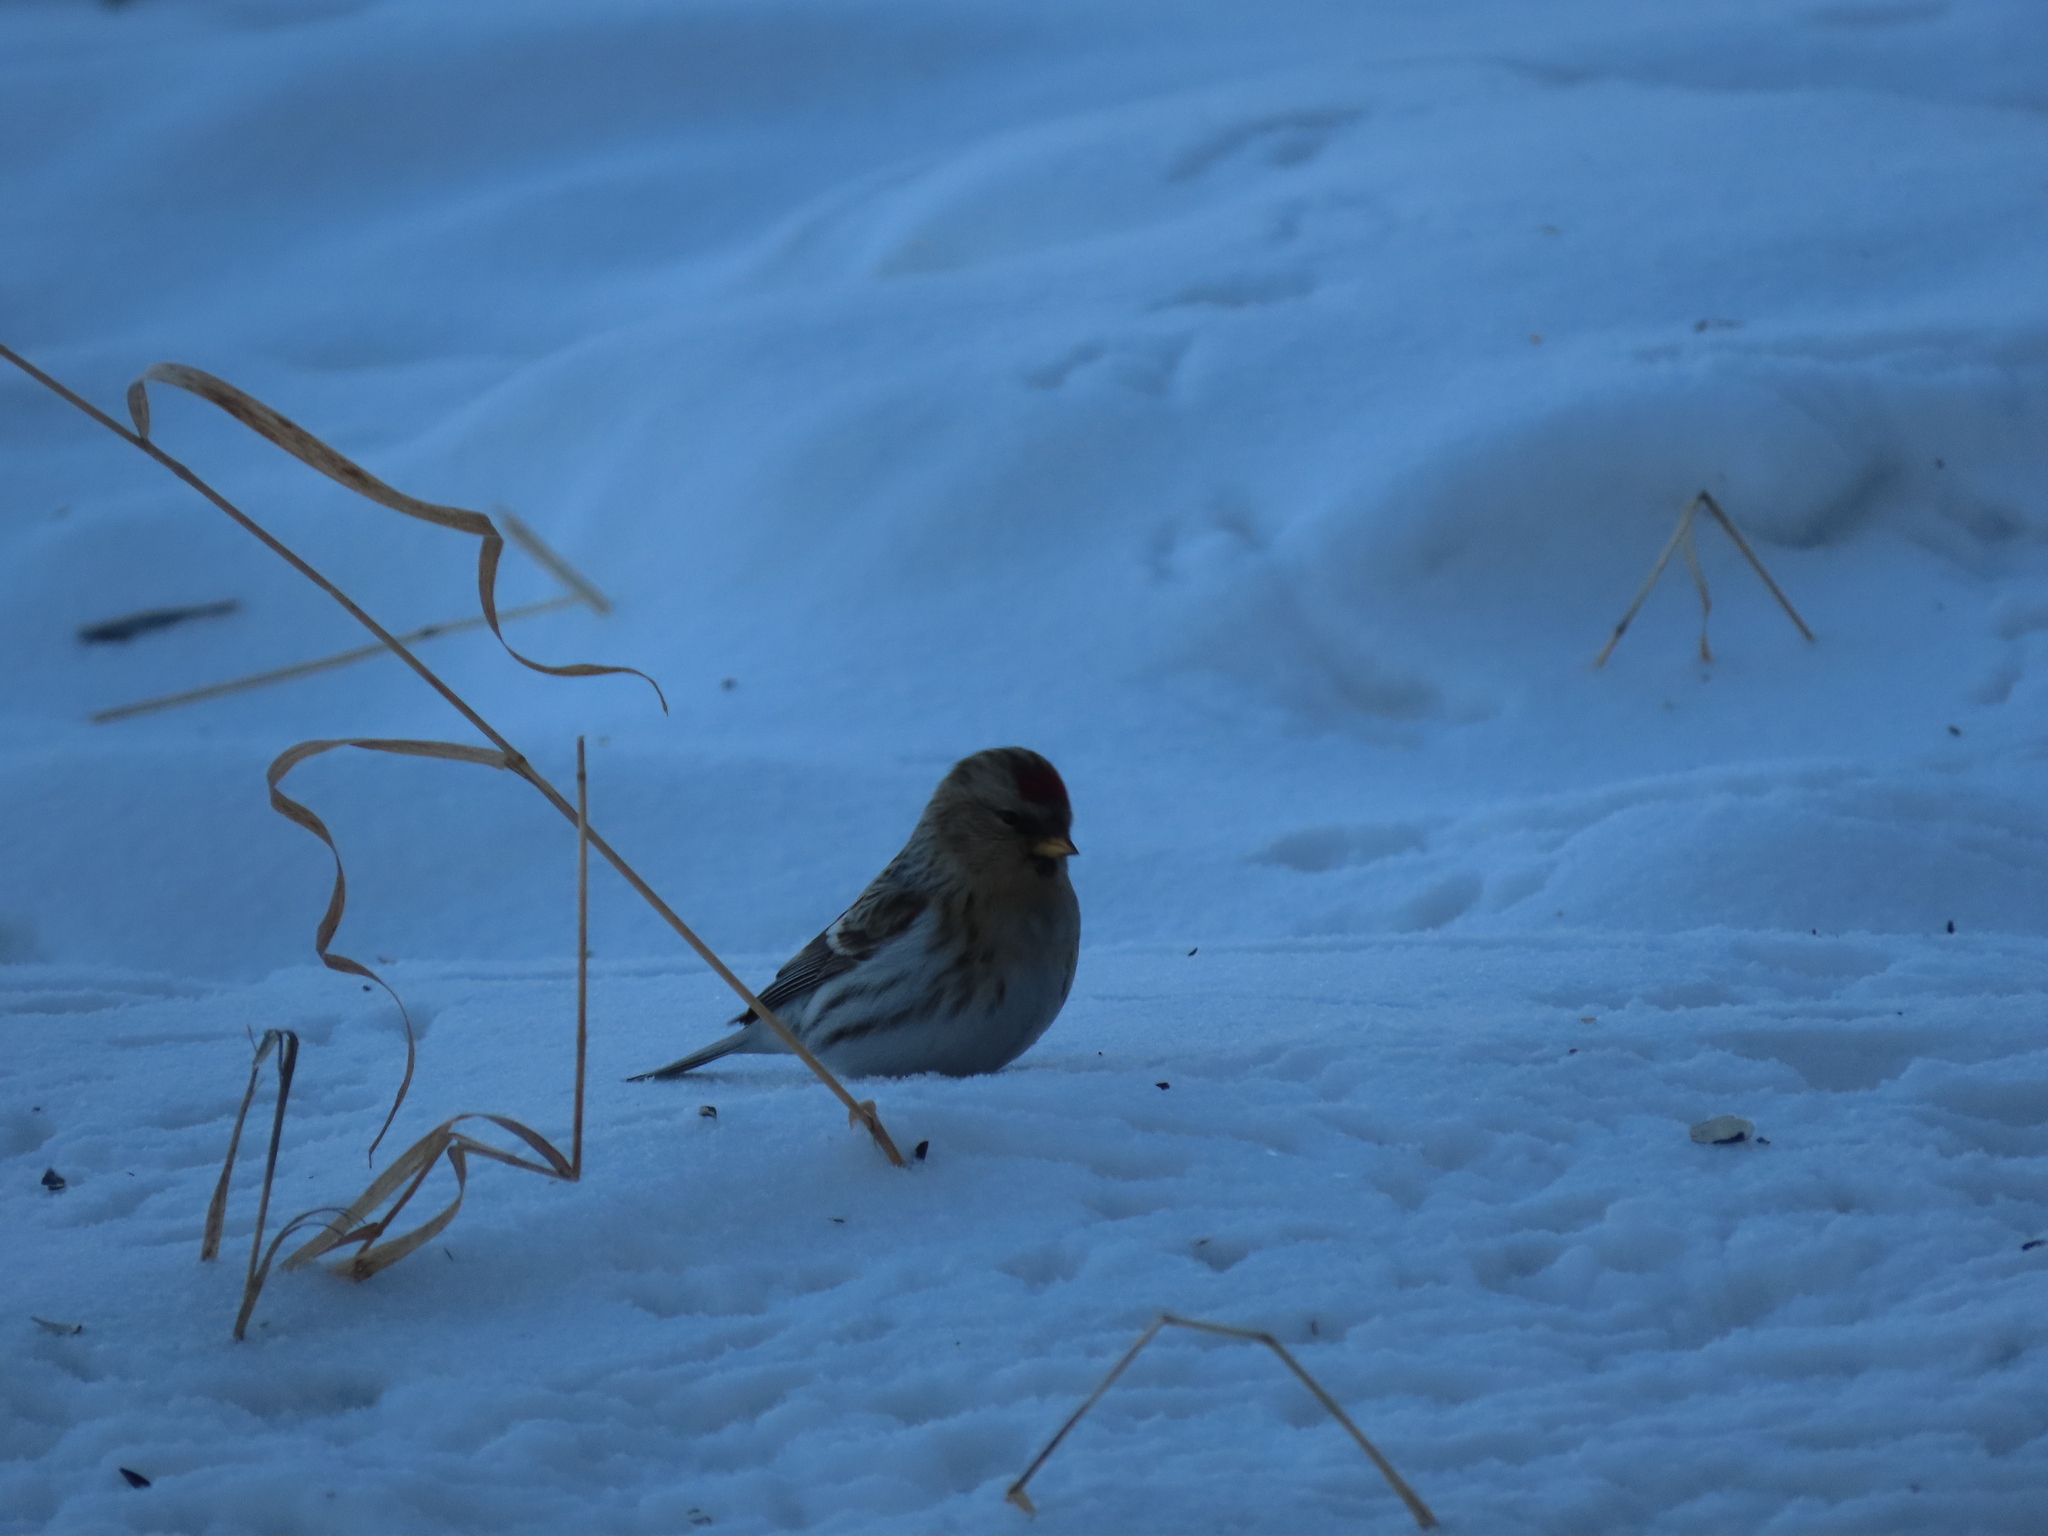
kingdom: Animalia
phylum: Chordata
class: Aves
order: Passeriformes
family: Fringillidae
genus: Acanthis
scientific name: Acanthis flammea
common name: Common redpoll
